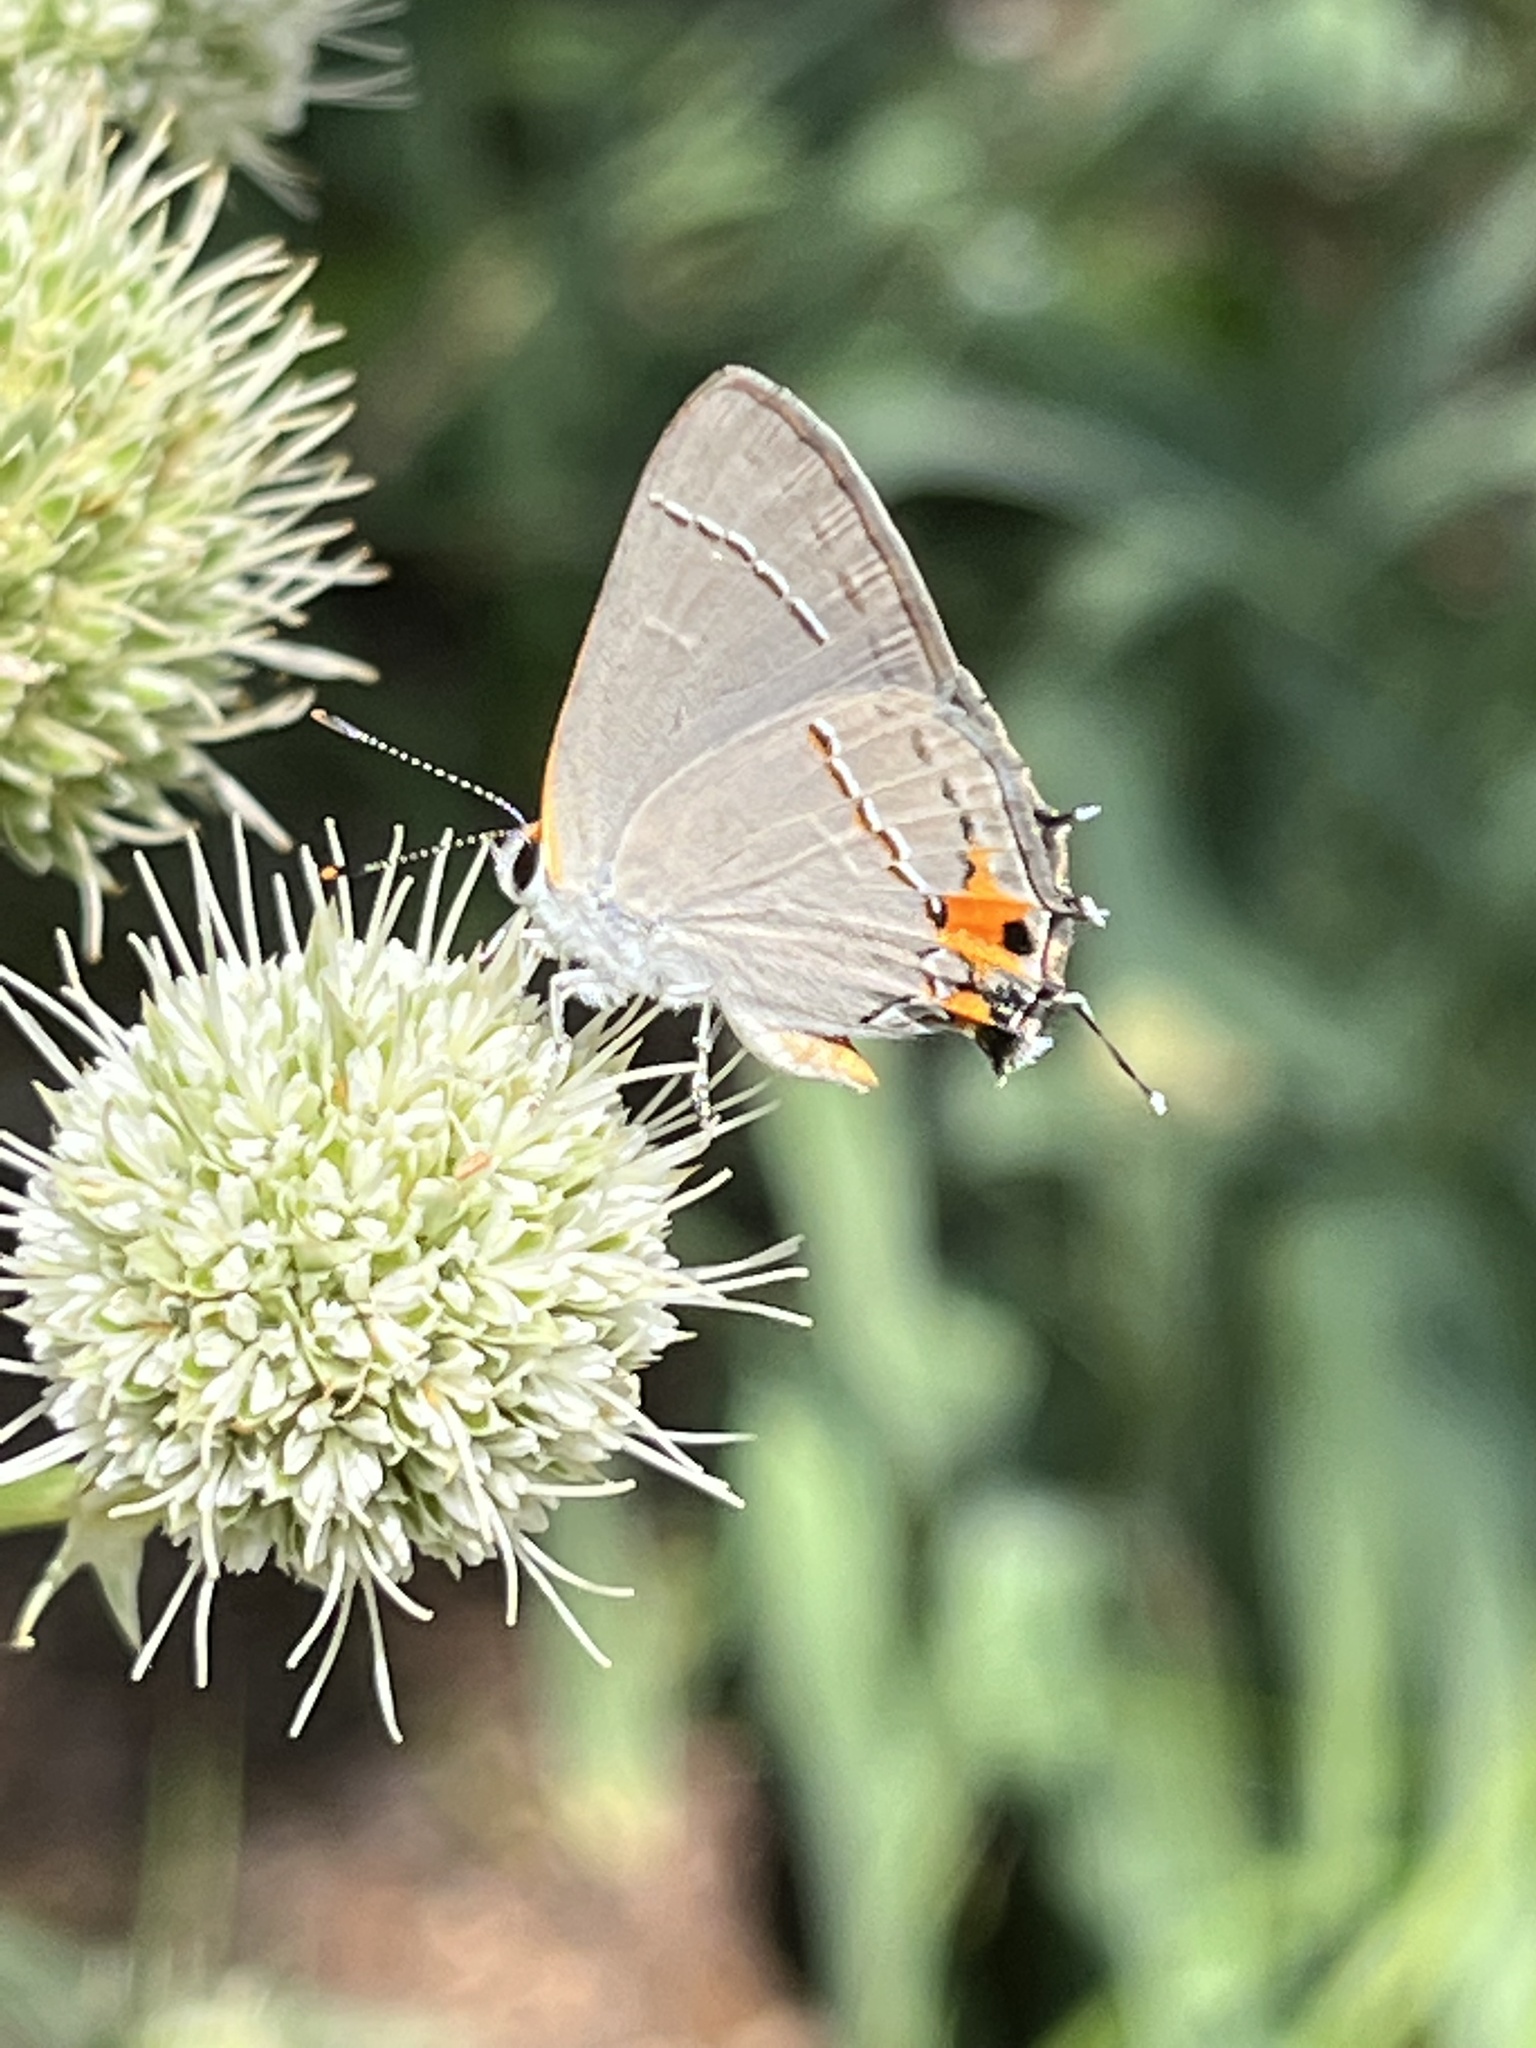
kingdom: Animalia
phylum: Arthropoda
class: Insecta
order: Lepidoptera
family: Lycaenidae
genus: Strymon
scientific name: Strymon melinus
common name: Gray hairstreak
